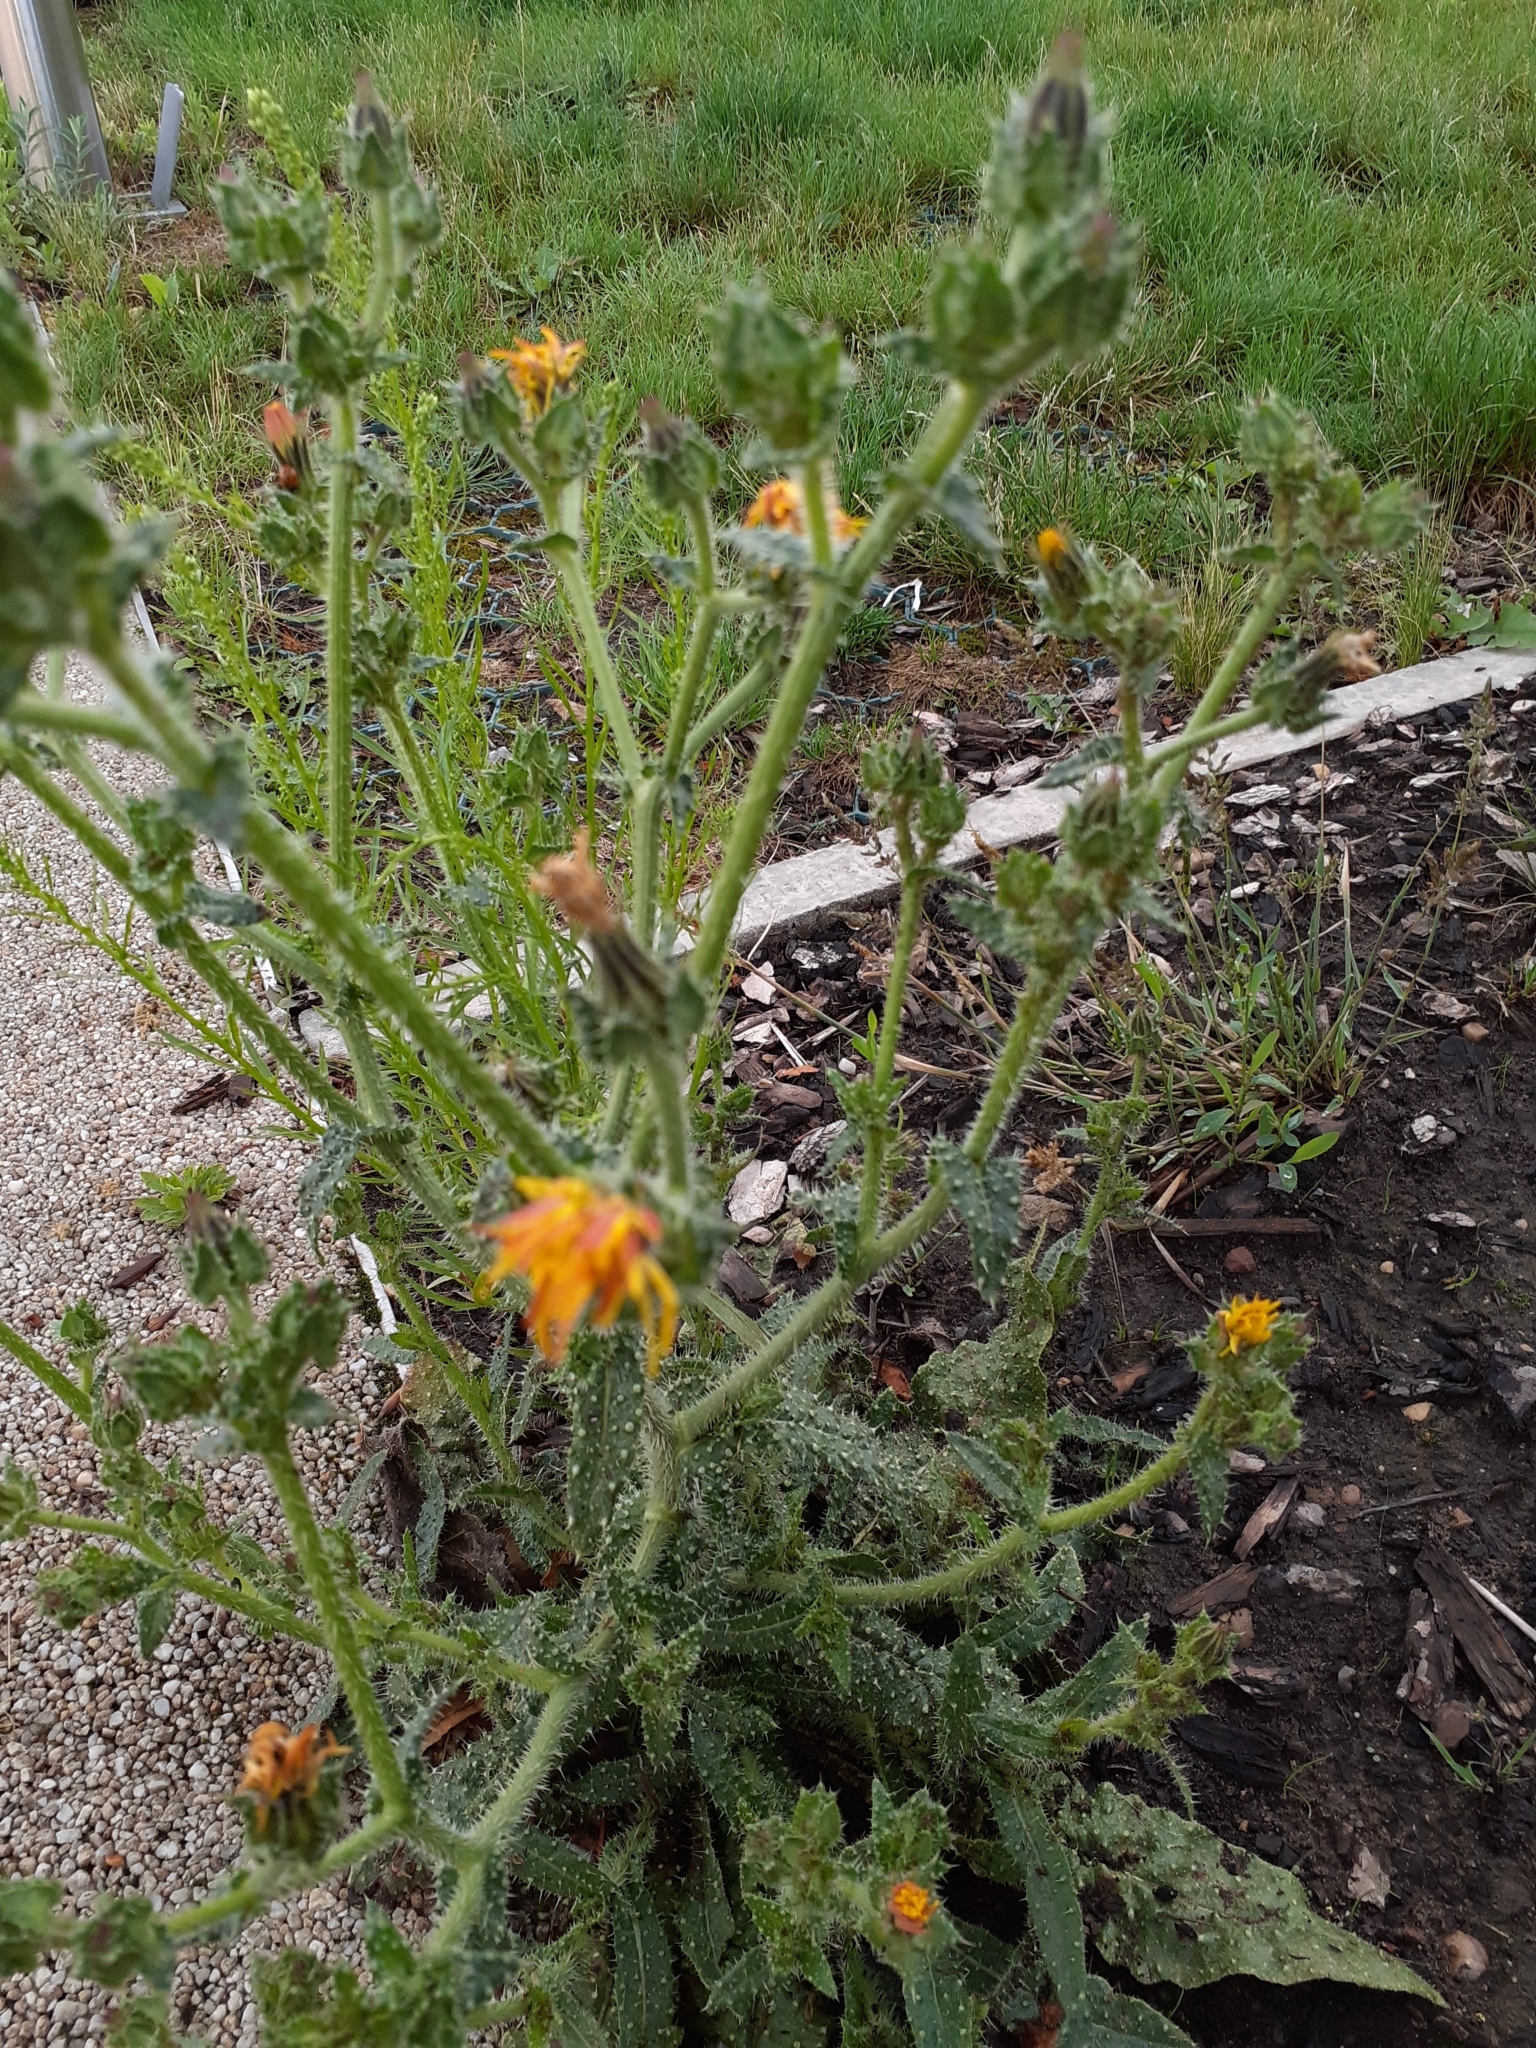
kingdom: Plantae
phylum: Tracheophyta
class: Magnoliopsida
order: Asterales
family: Asteraceae
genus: Helminthotheca
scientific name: Helminthotheca echioides
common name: Ox-tongue
